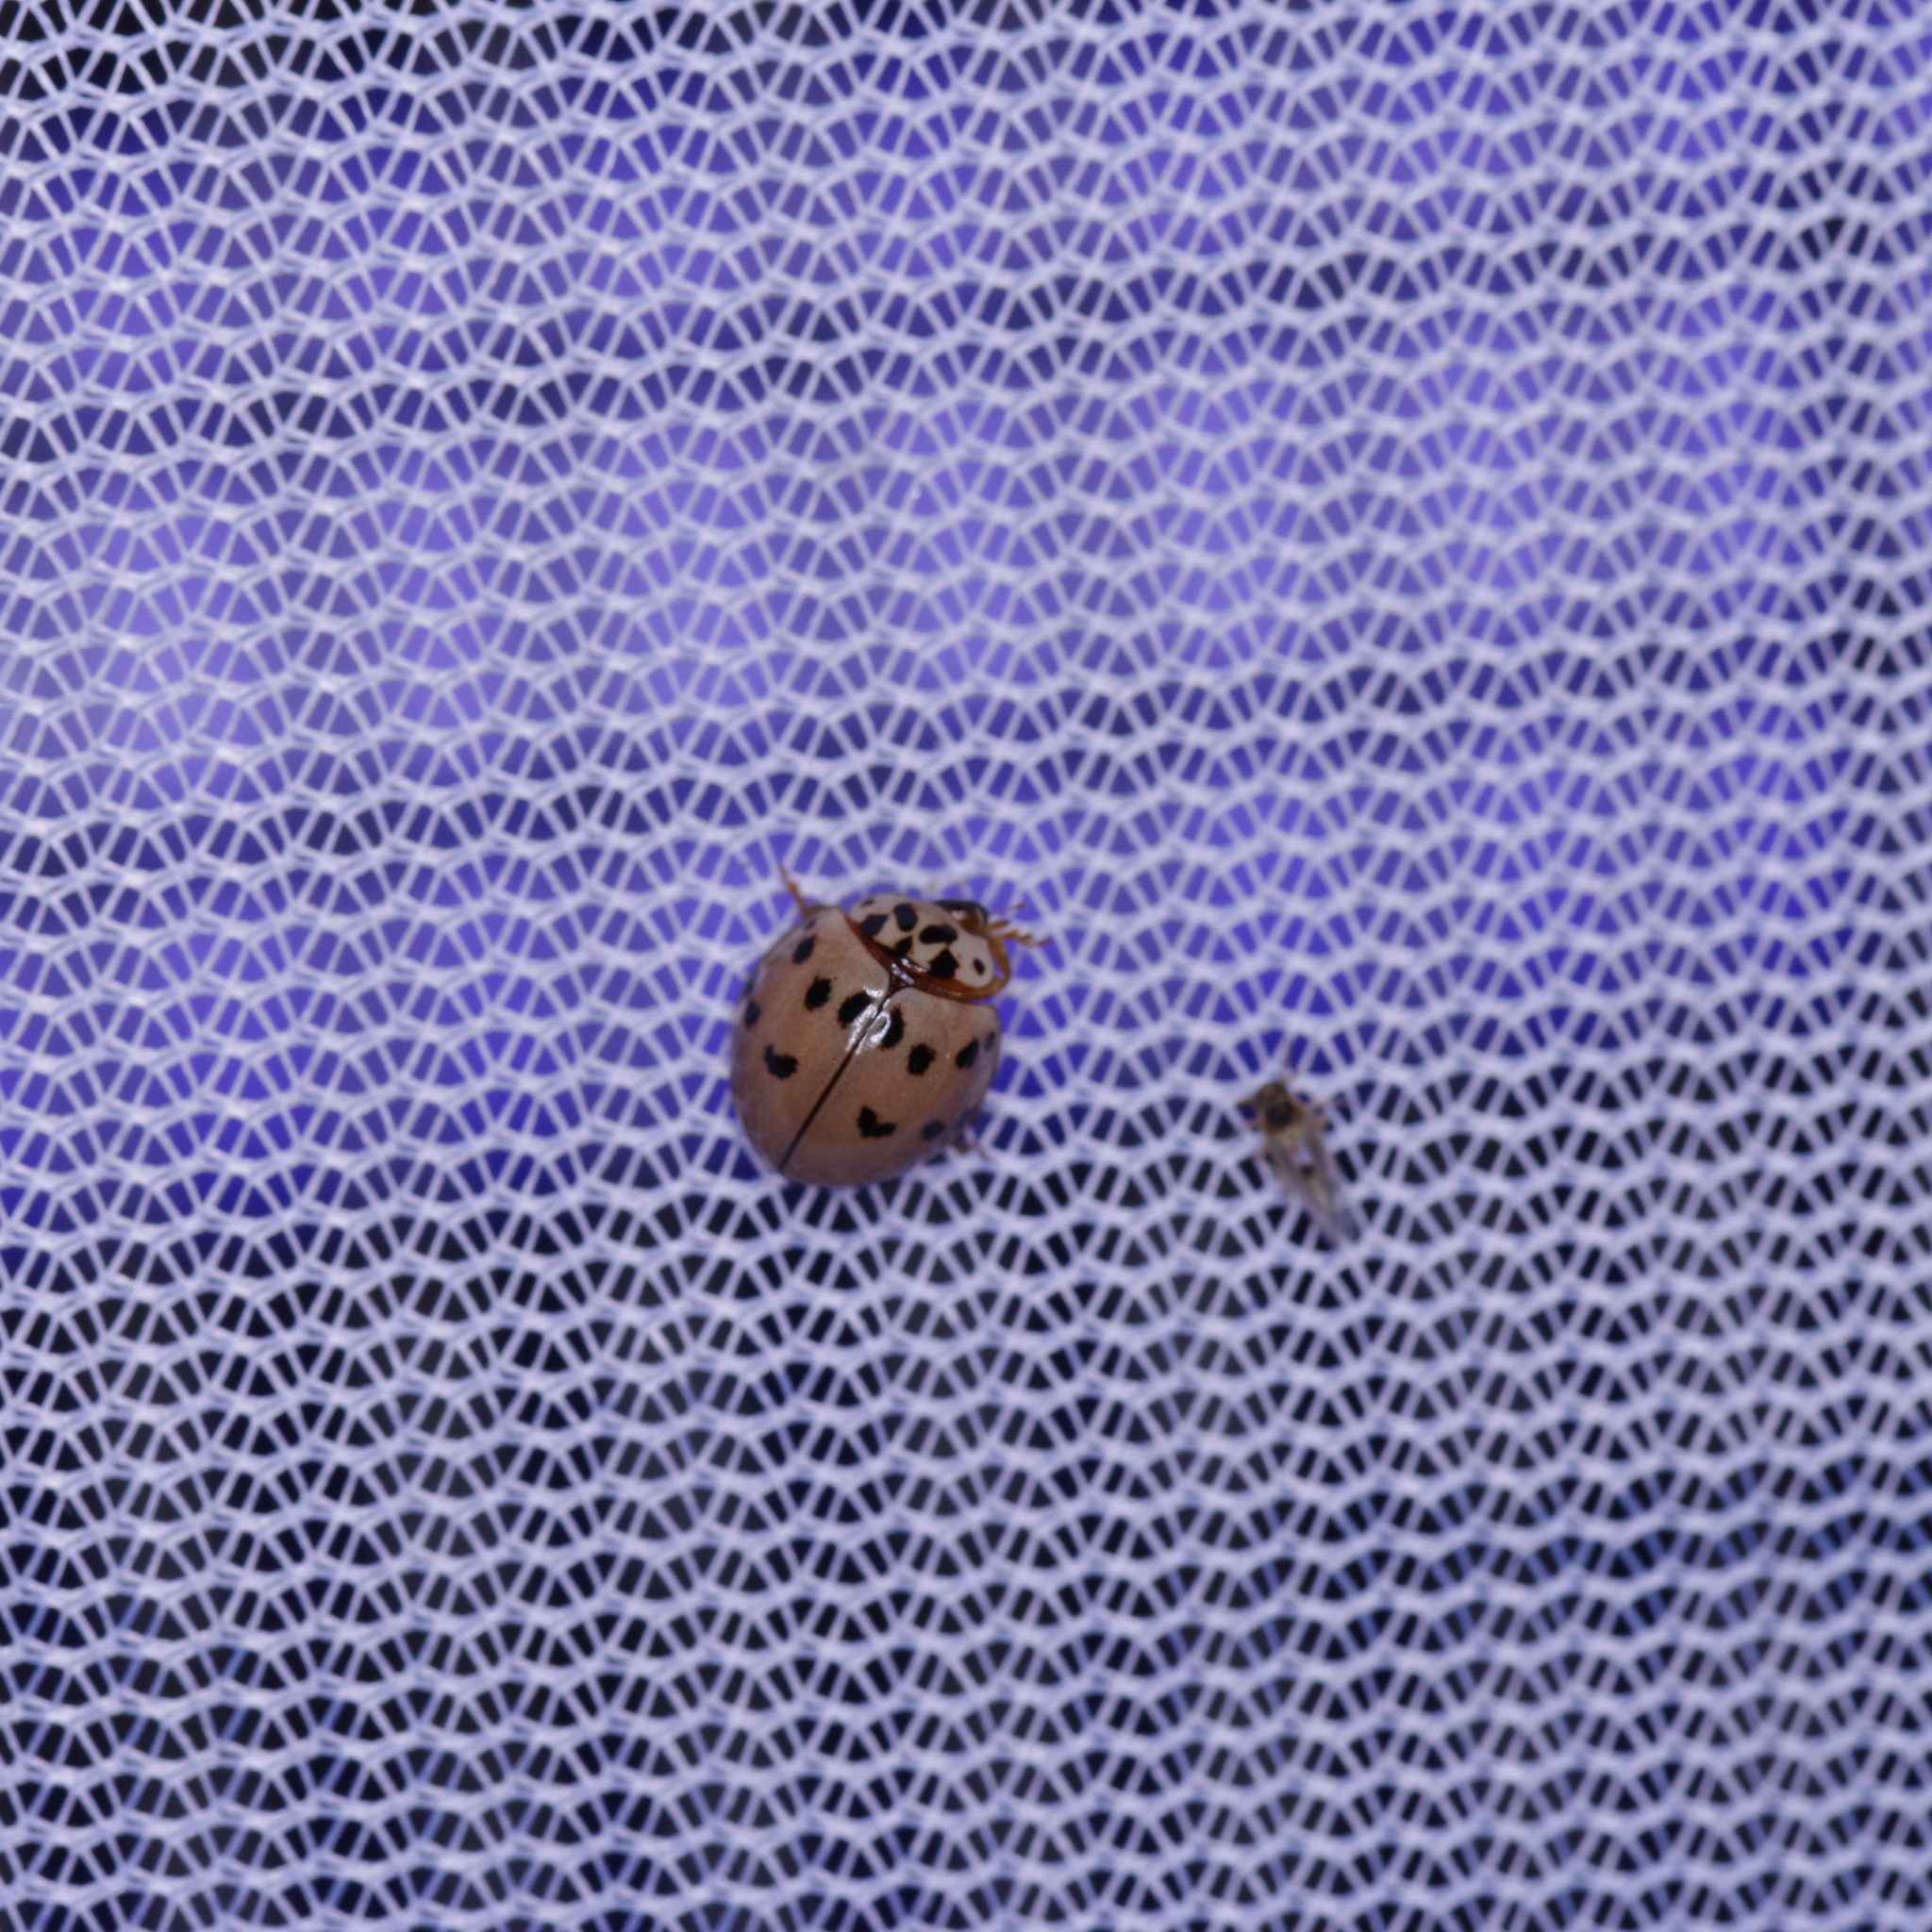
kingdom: Animalia
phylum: Arthropoda
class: Insecta
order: Coleoptera
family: Coccinellidae
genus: Olla
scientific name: Olla v-nigrum
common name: Ashy gray lady beetle
